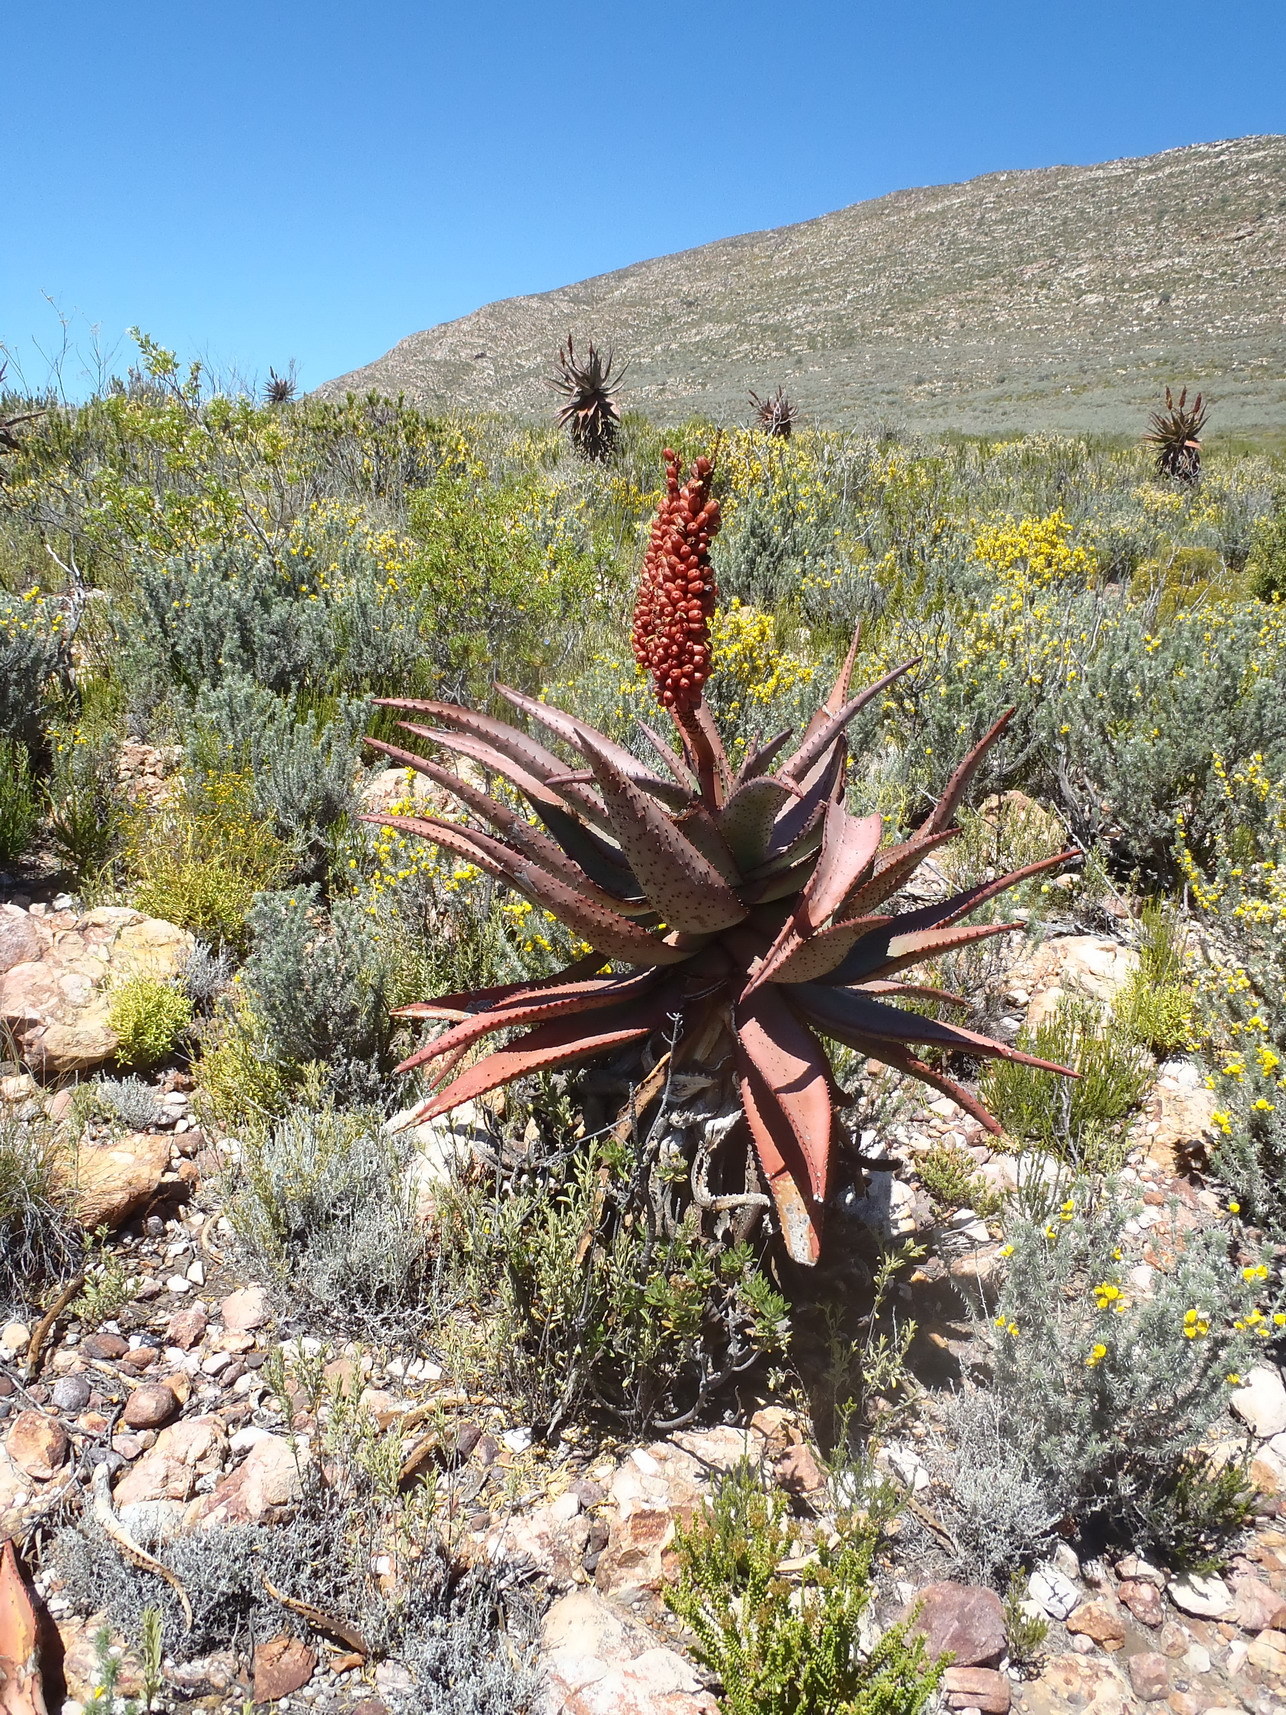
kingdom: Plantae
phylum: Tracheophyta
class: Liliopsida
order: Asparagales
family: Asphodelaceae
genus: Aloe
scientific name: Aloe ferox
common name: Bitter aloe
